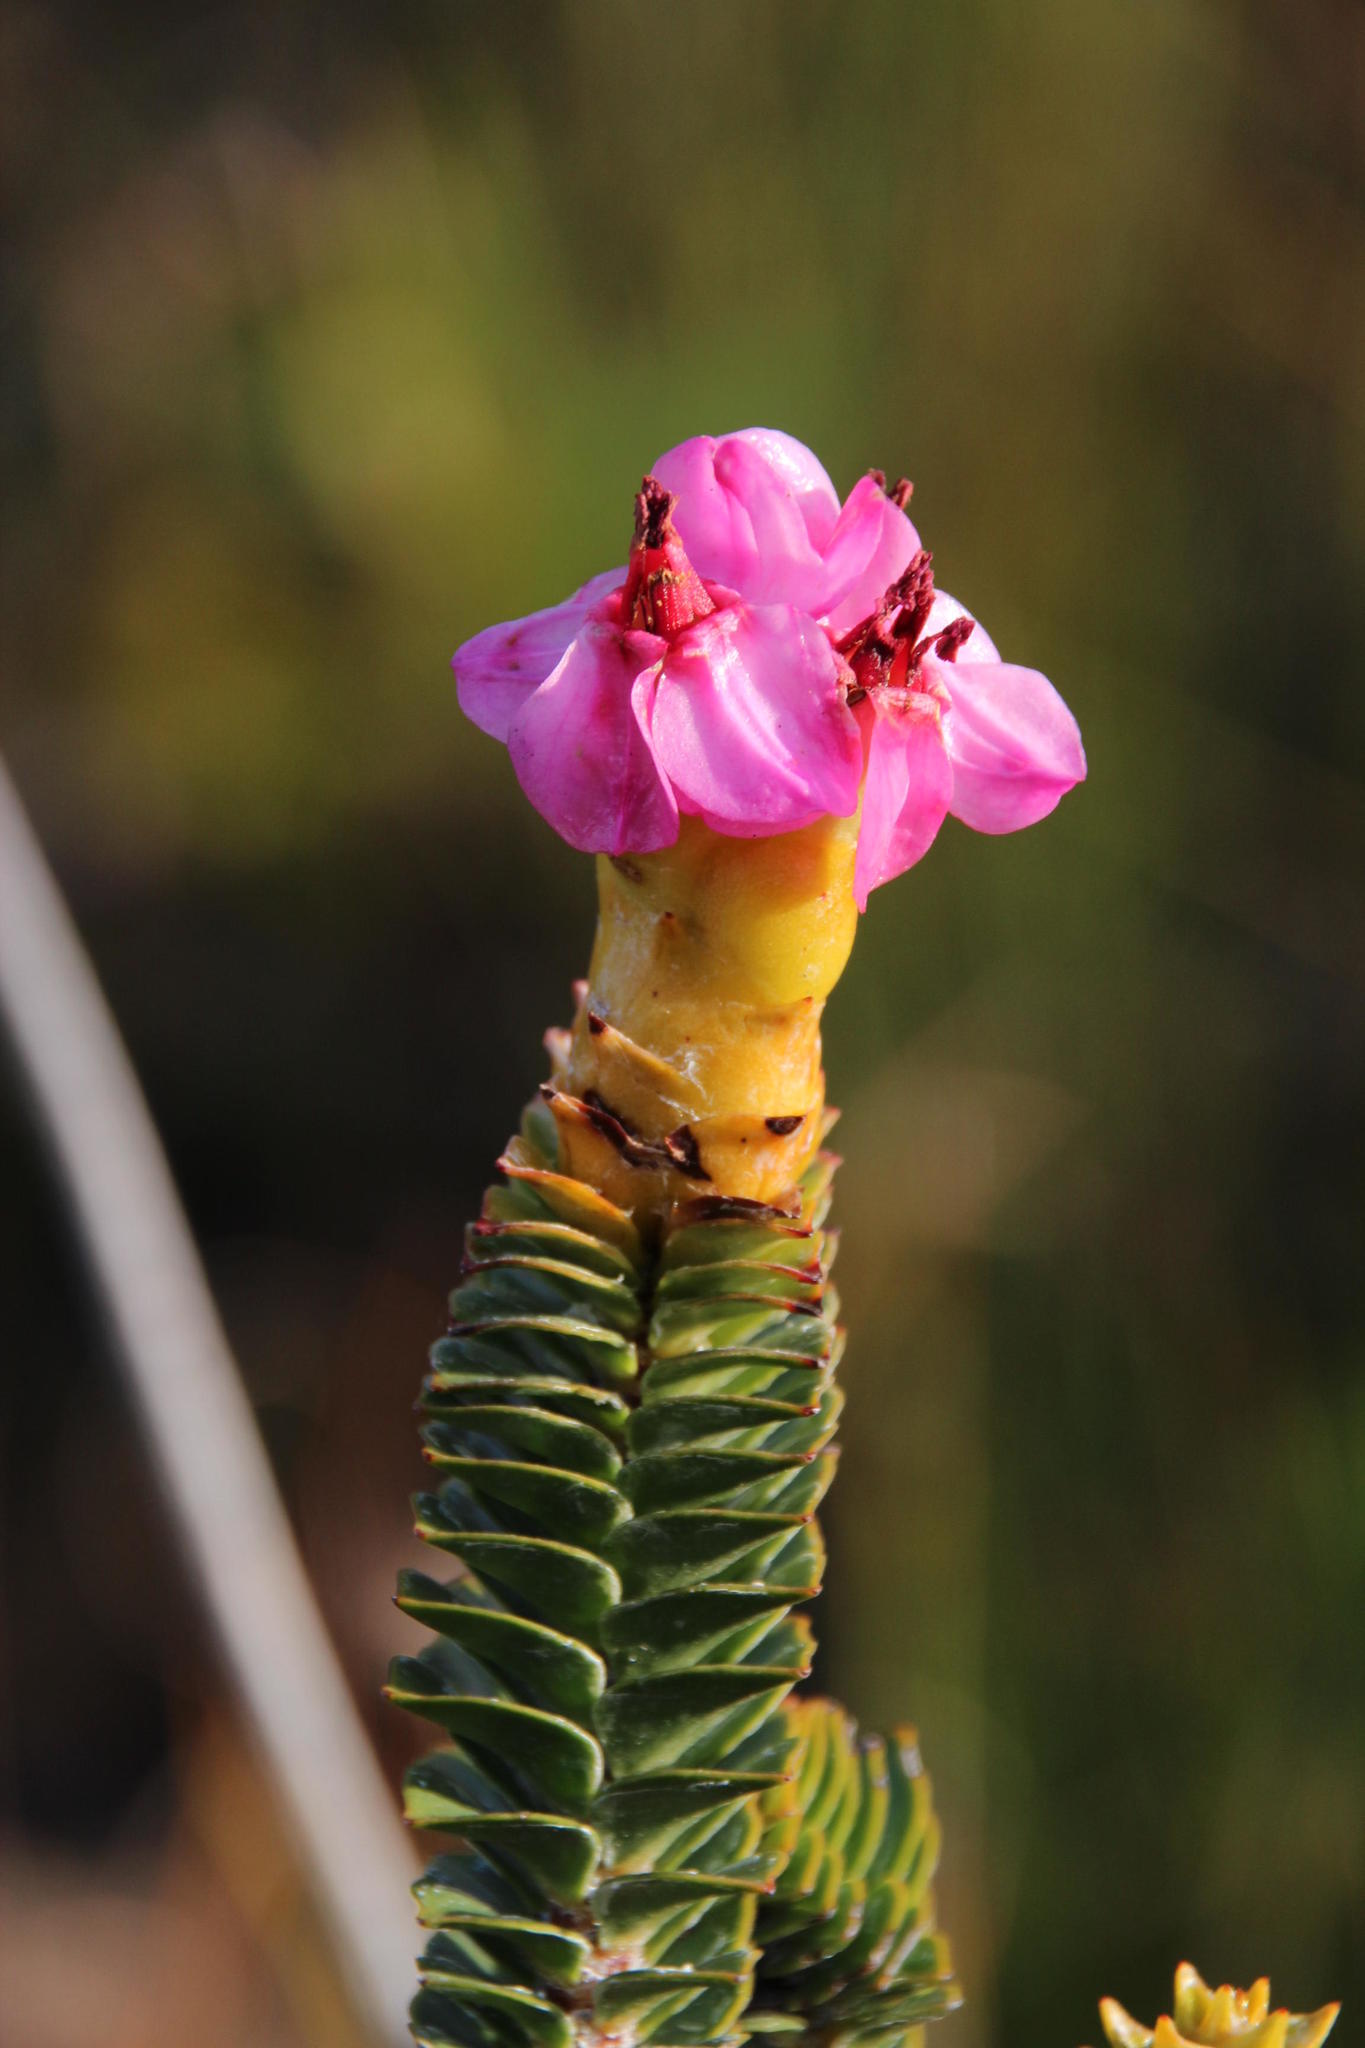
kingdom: Plantae
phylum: Tracheophyta
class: Magnoliopsida
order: Myrtales
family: Penaeaceae
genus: Saltera
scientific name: Saltera sarcocolla
